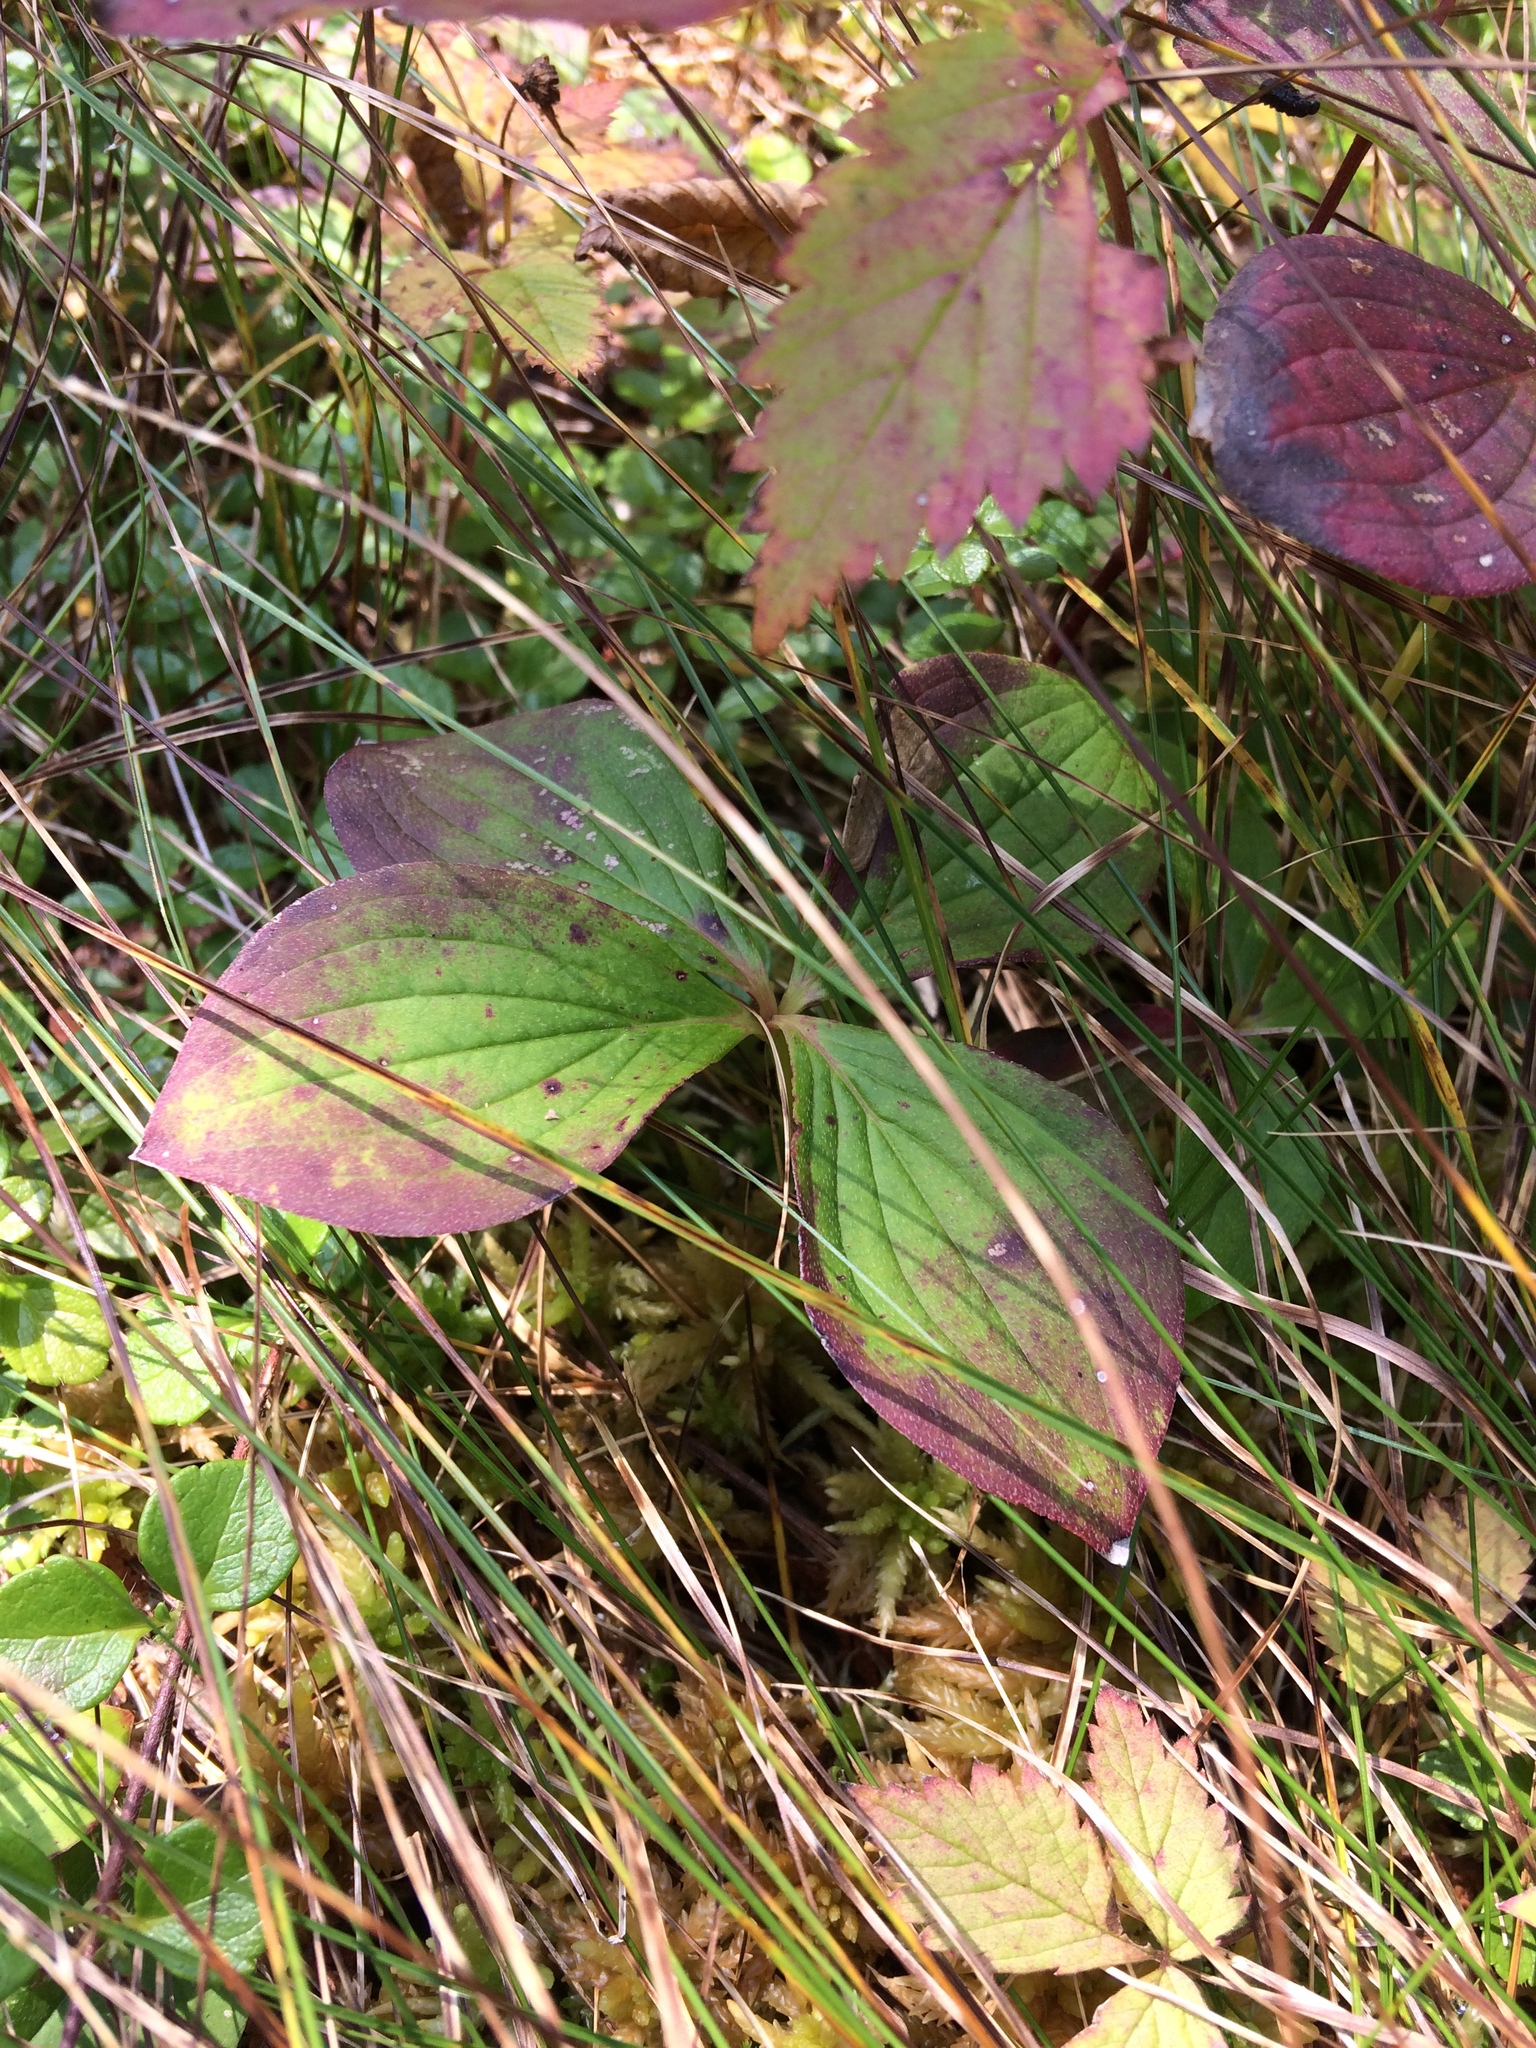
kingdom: Plantae
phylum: Tracheophyta
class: Magnoliopsida
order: Cornales
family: Cornaceae
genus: Cornus
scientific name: Cornus canadensis
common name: Creeping dogwood
